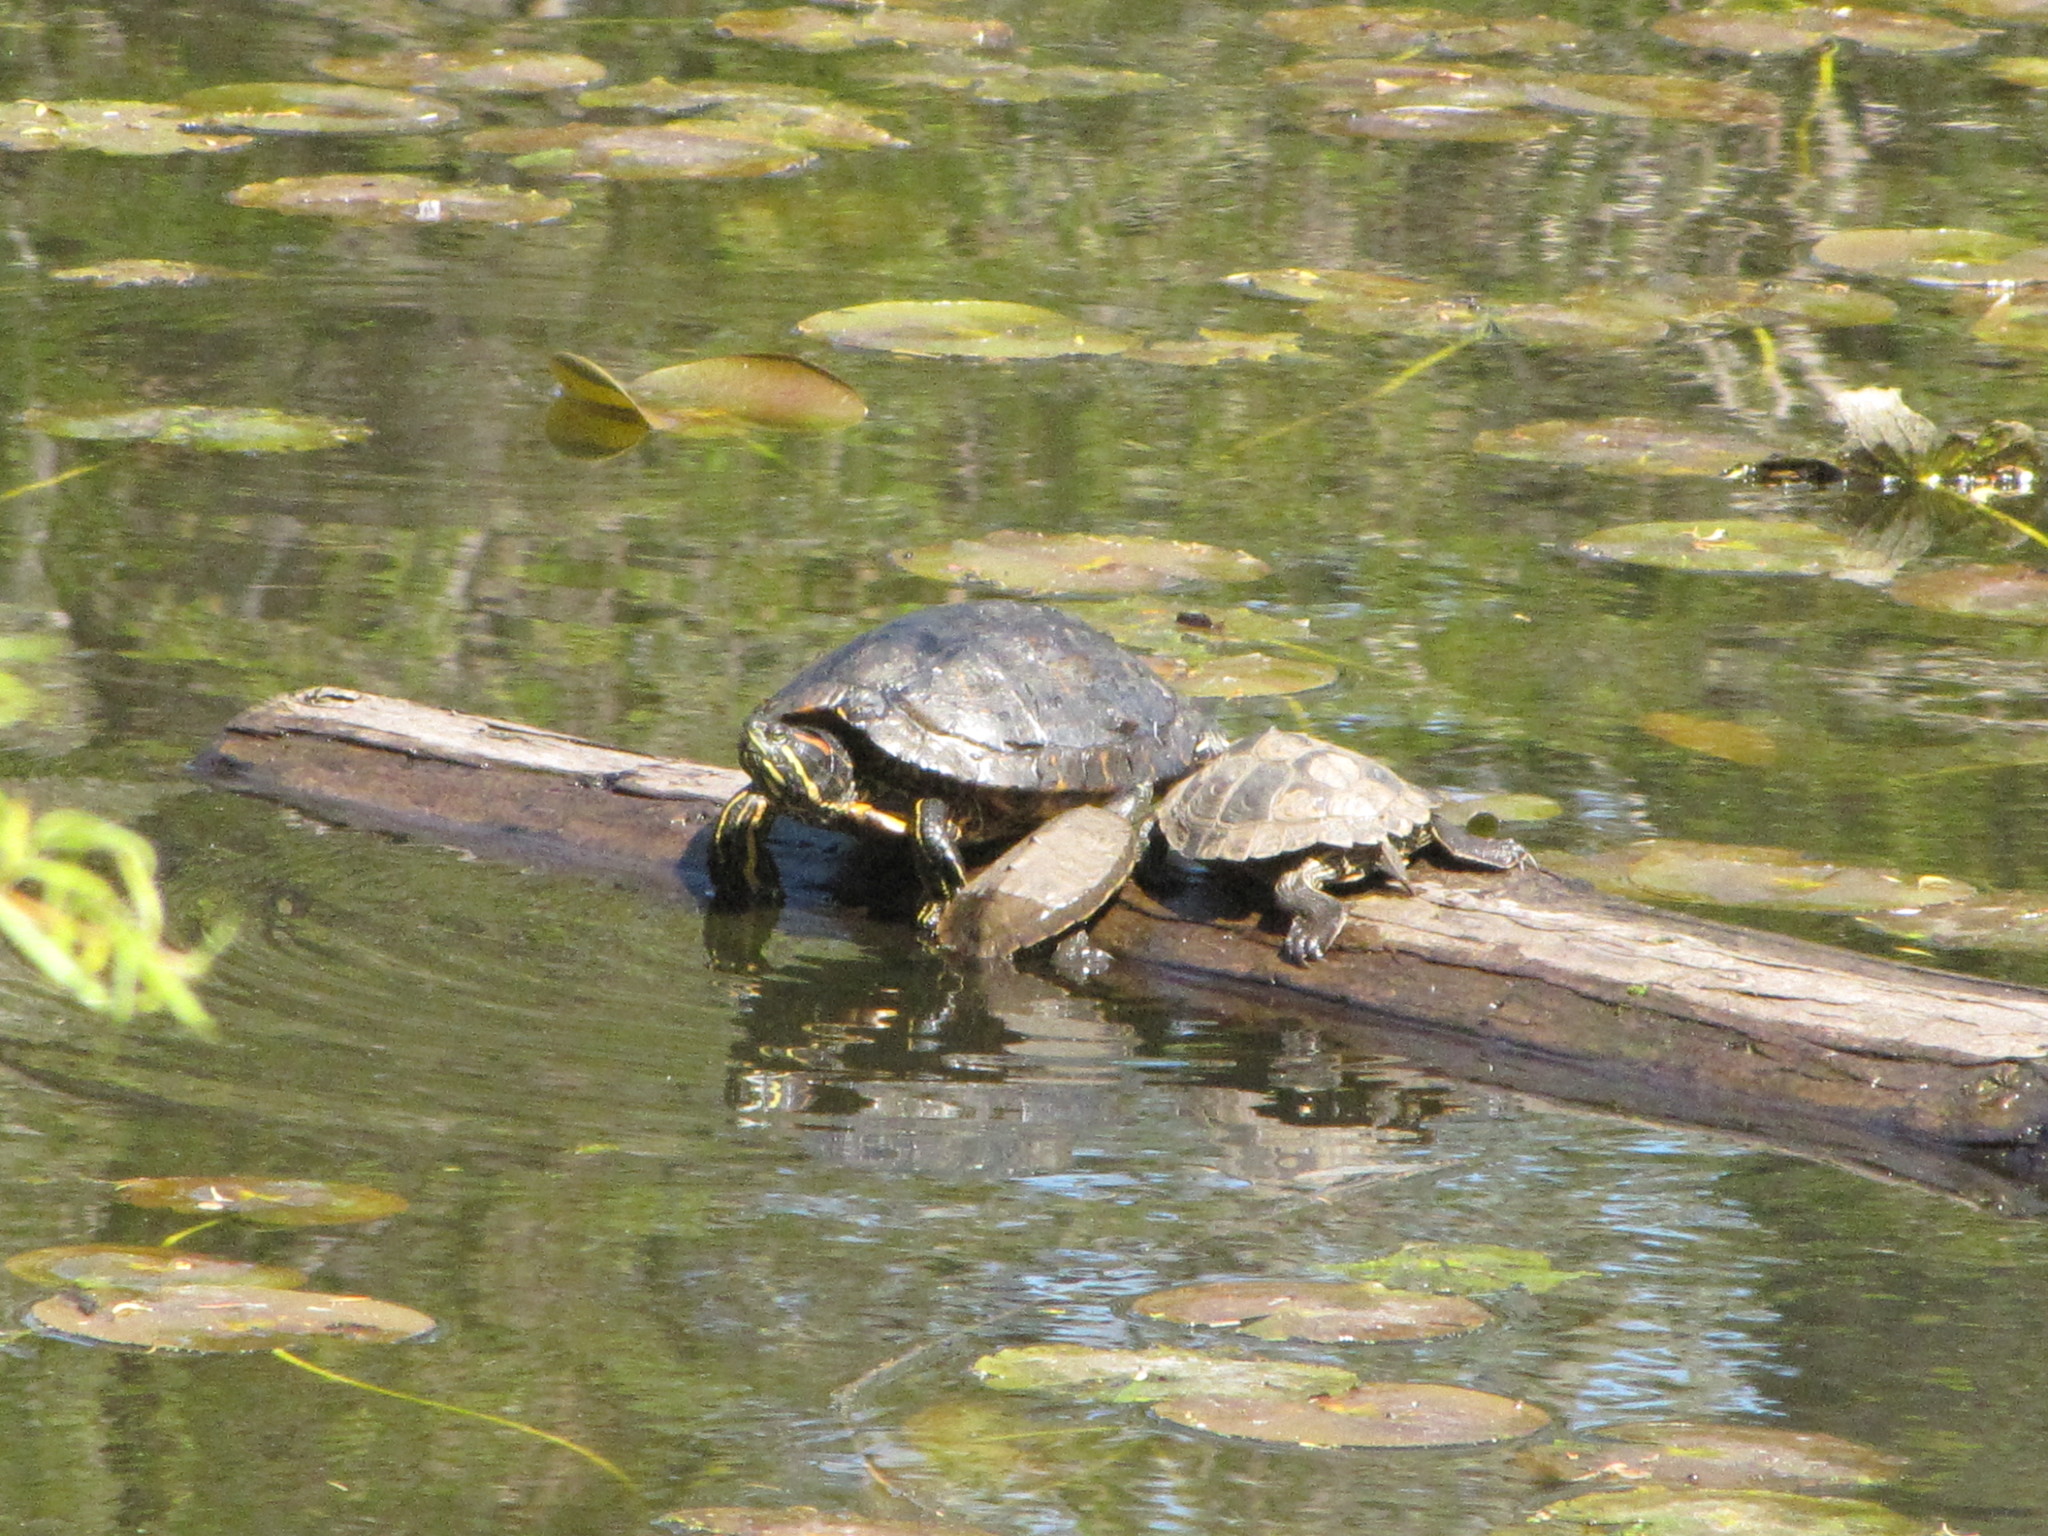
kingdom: Animalia
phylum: Chordata
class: Testudines
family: Emydidae
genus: Trachemys
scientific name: Trachemys scripta
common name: Slider
